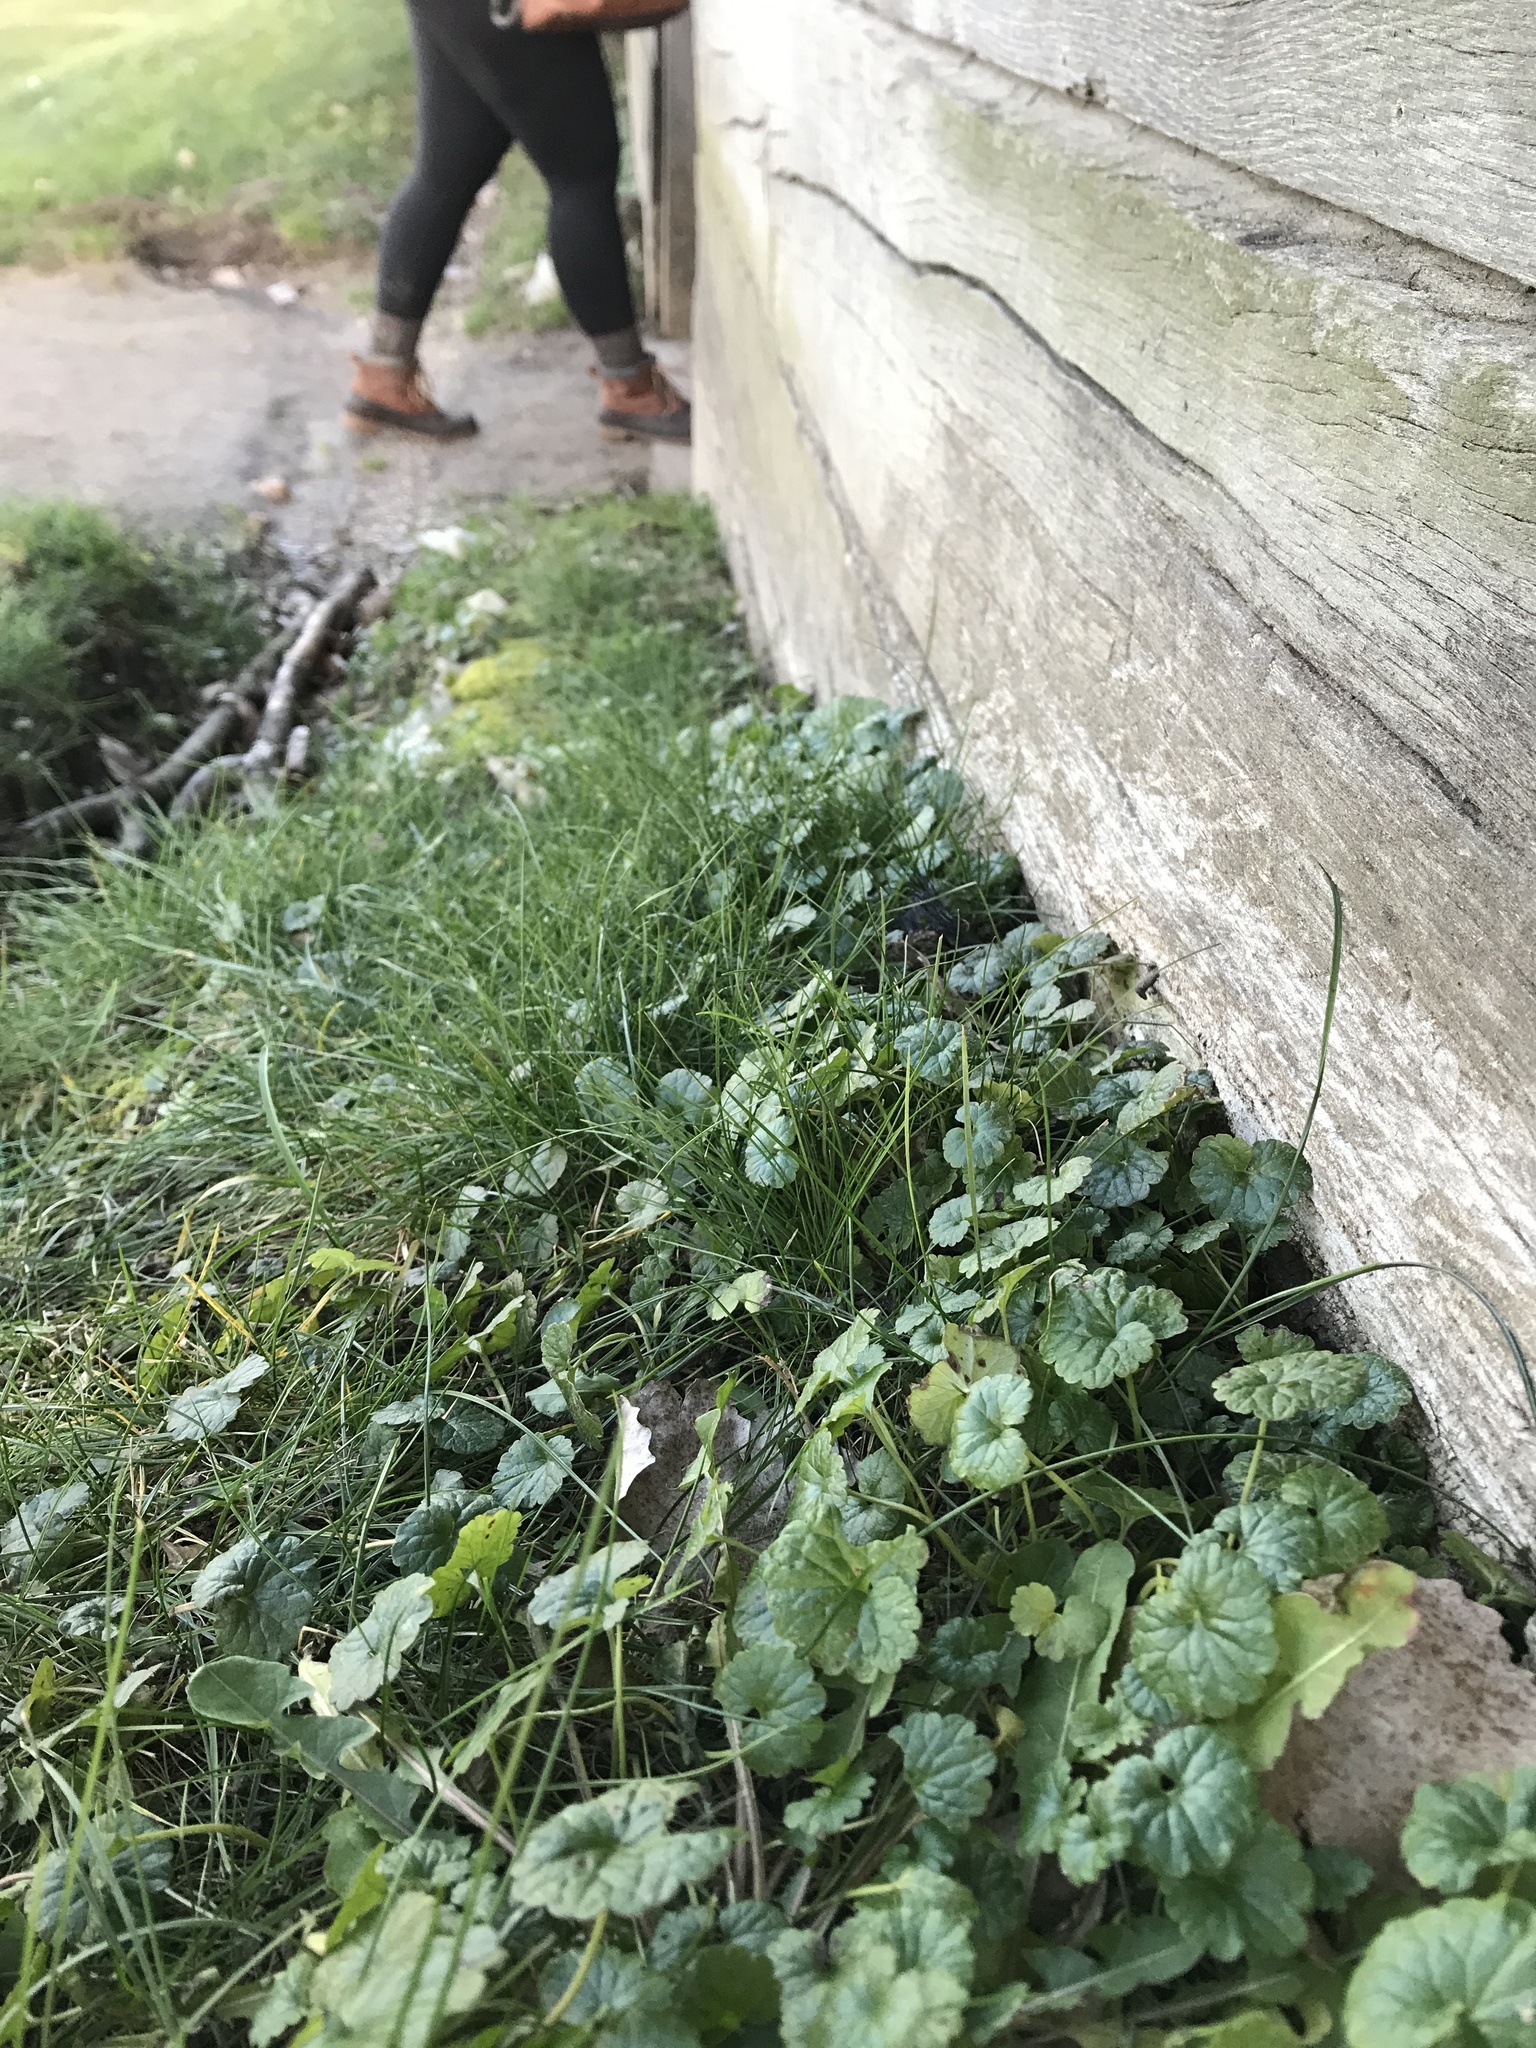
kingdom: Plantae
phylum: Tracheophyta
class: Magnoliopsida
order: Lamiales
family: Lamiaceae
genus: Glechoma
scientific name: Glechoma hederacea
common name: Ground ivy
